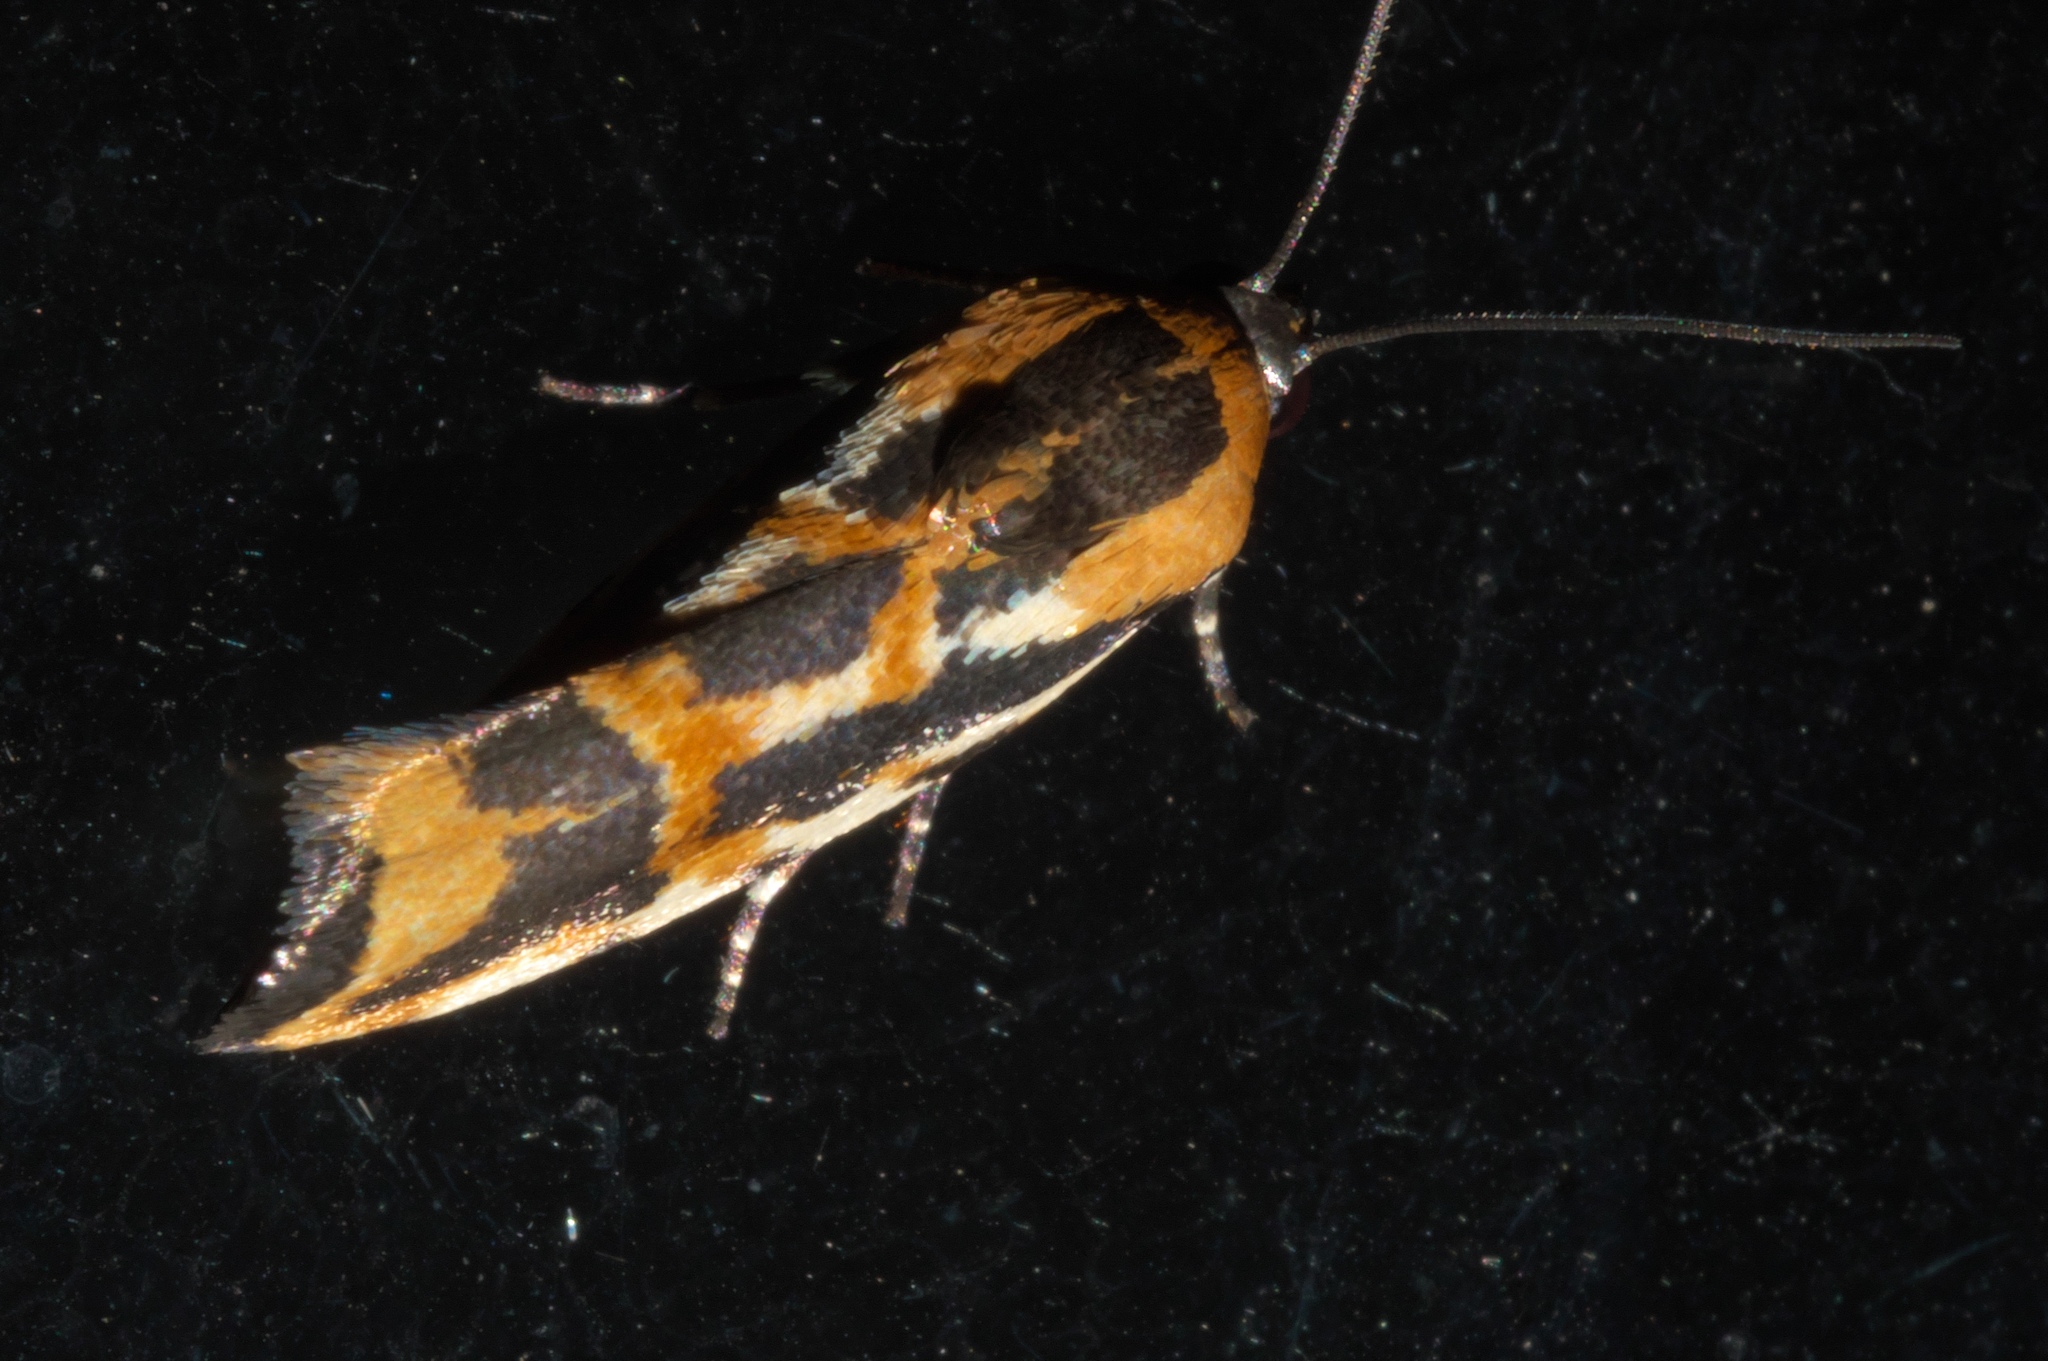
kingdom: Animalia
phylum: Arthropoda
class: Insecta
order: Lepidoptera
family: Noctuidae
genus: Acontia
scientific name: Acontia leo
